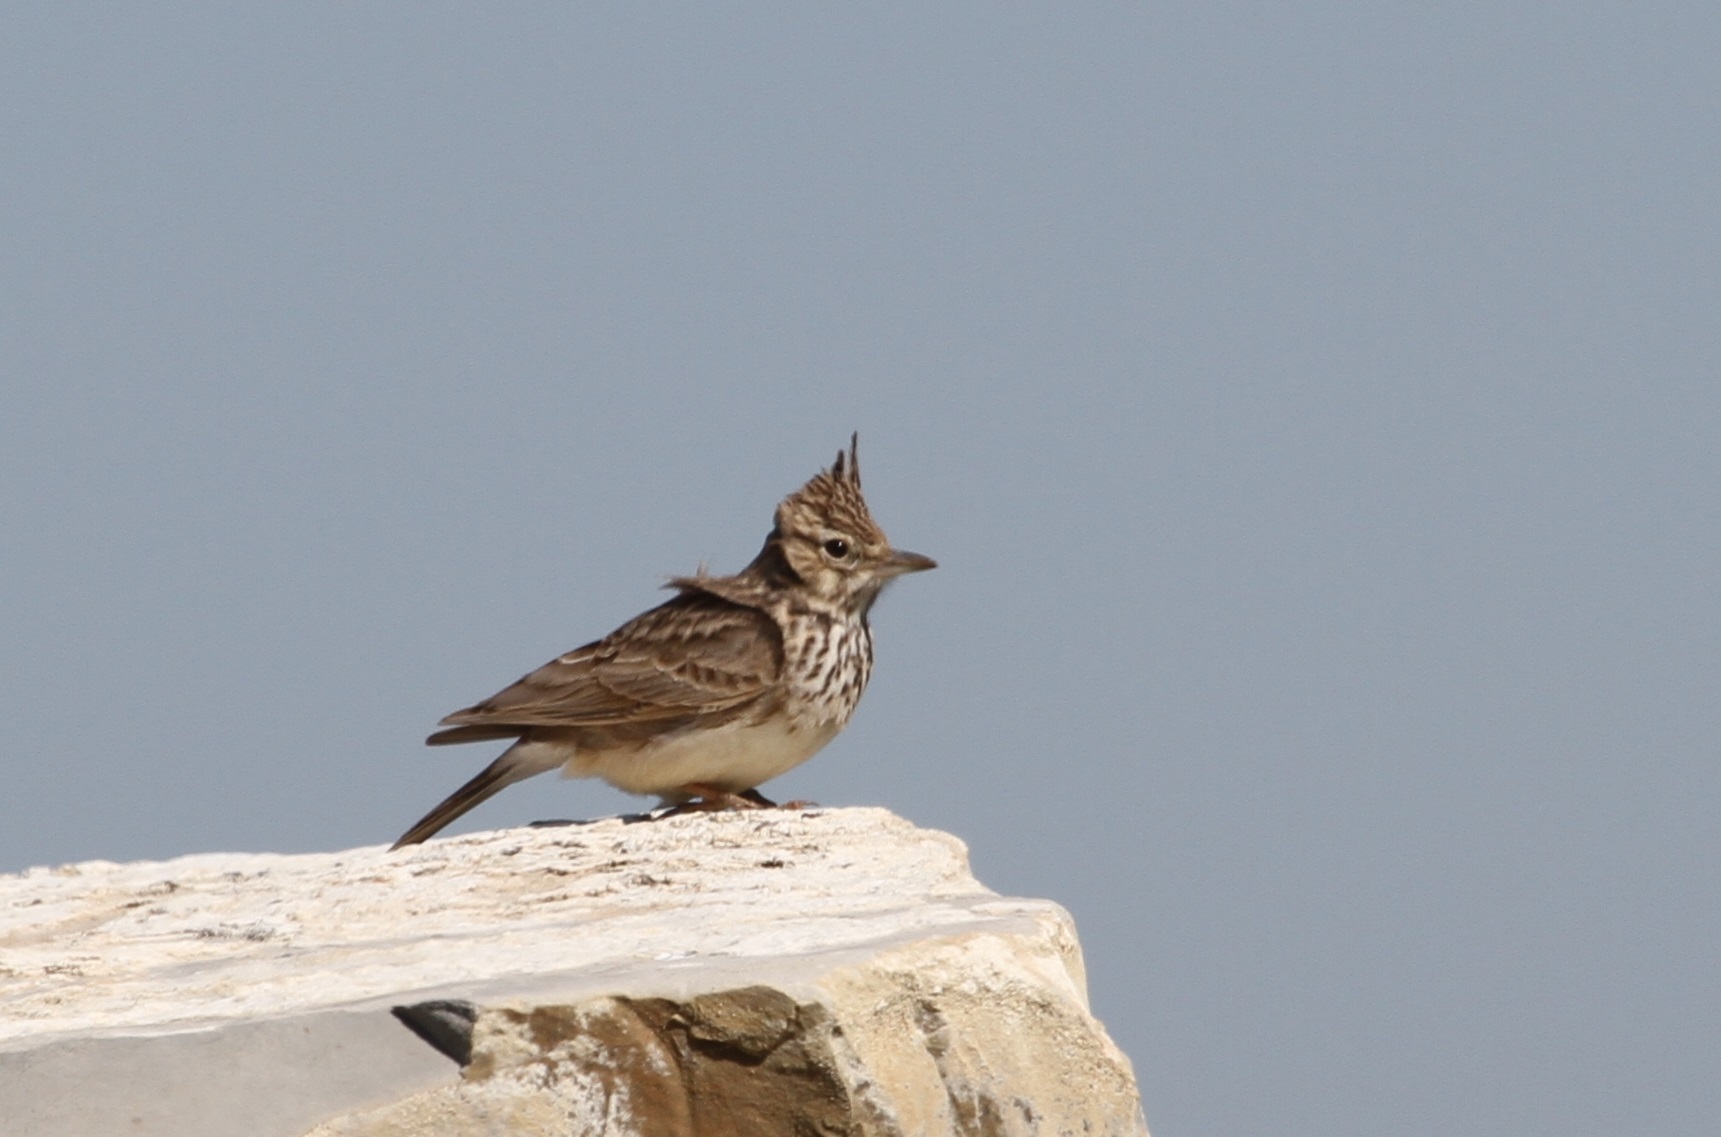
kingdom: Animalia
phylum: Chordata
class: Aves
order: Passeriformes
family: Alaudidae
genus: Galerida
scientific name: Galerida theklae
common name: Thekla lark
